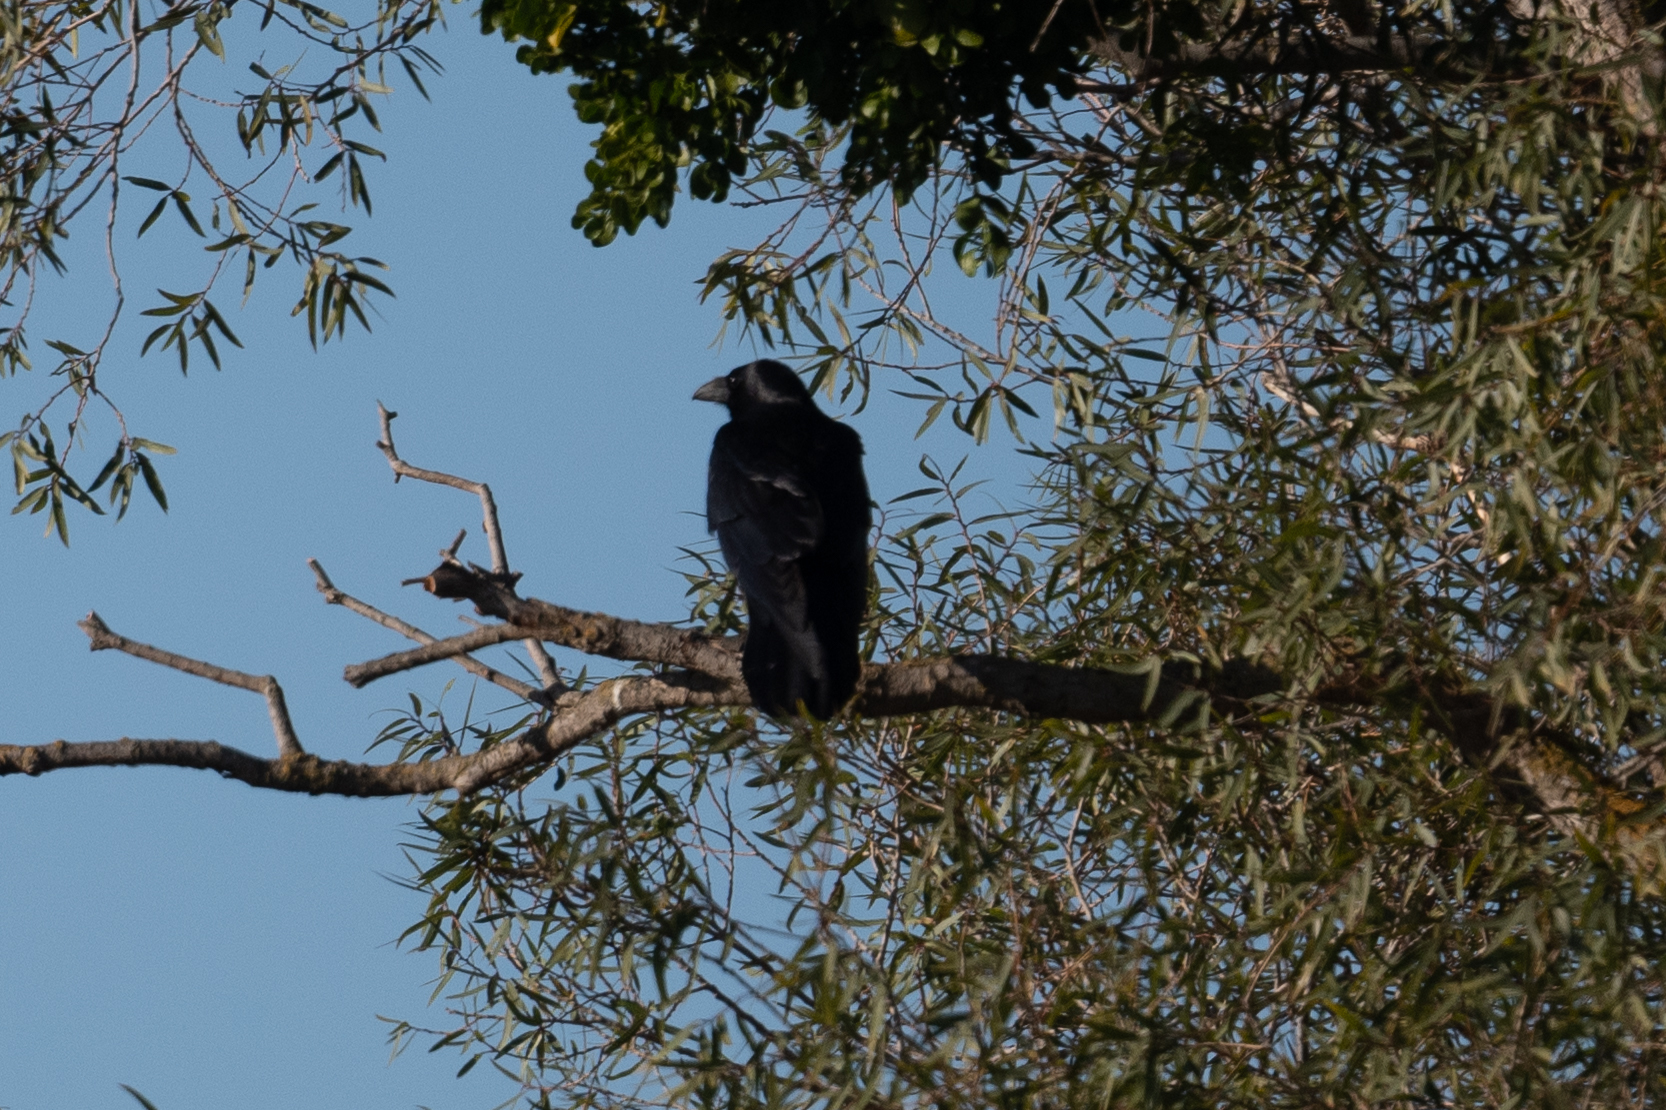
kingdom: Animalia
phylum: Chordata
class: Aves
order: Passeriformes
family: Corvidae
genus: Corvus
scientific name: Corvus corax
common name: Common raven
